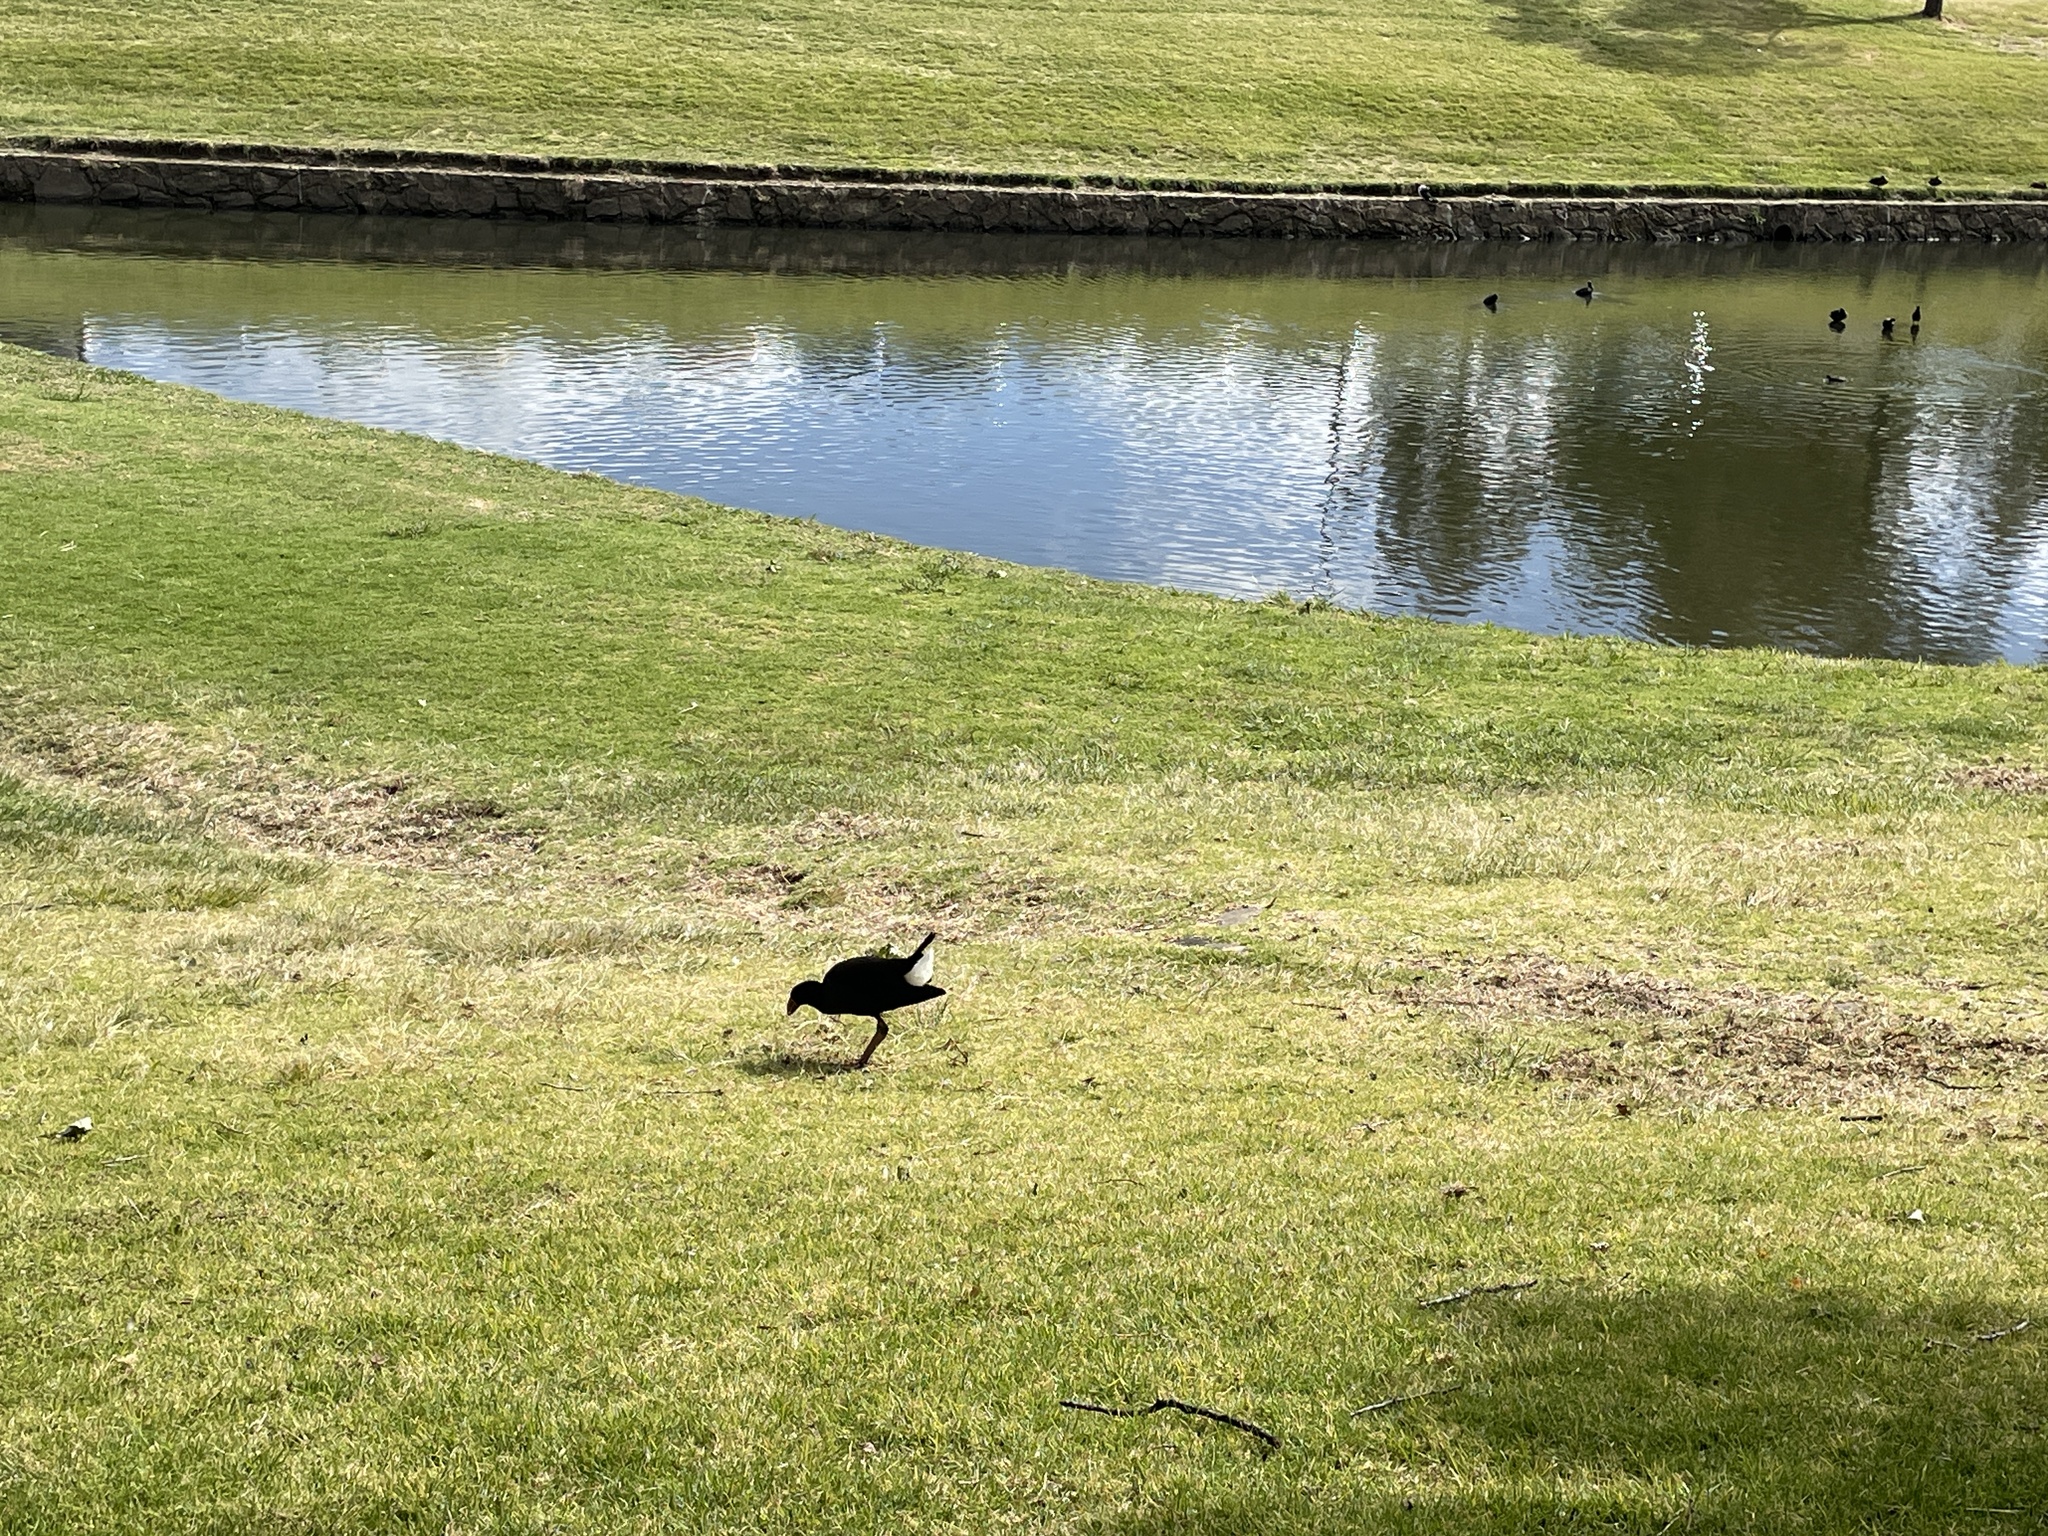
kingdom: Animalia
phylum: Chordata
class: Aves
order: Gruiformes
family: Rallidae
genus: Porphyrio
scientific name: Porphyrio melanotus
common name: Australasian swamphen
